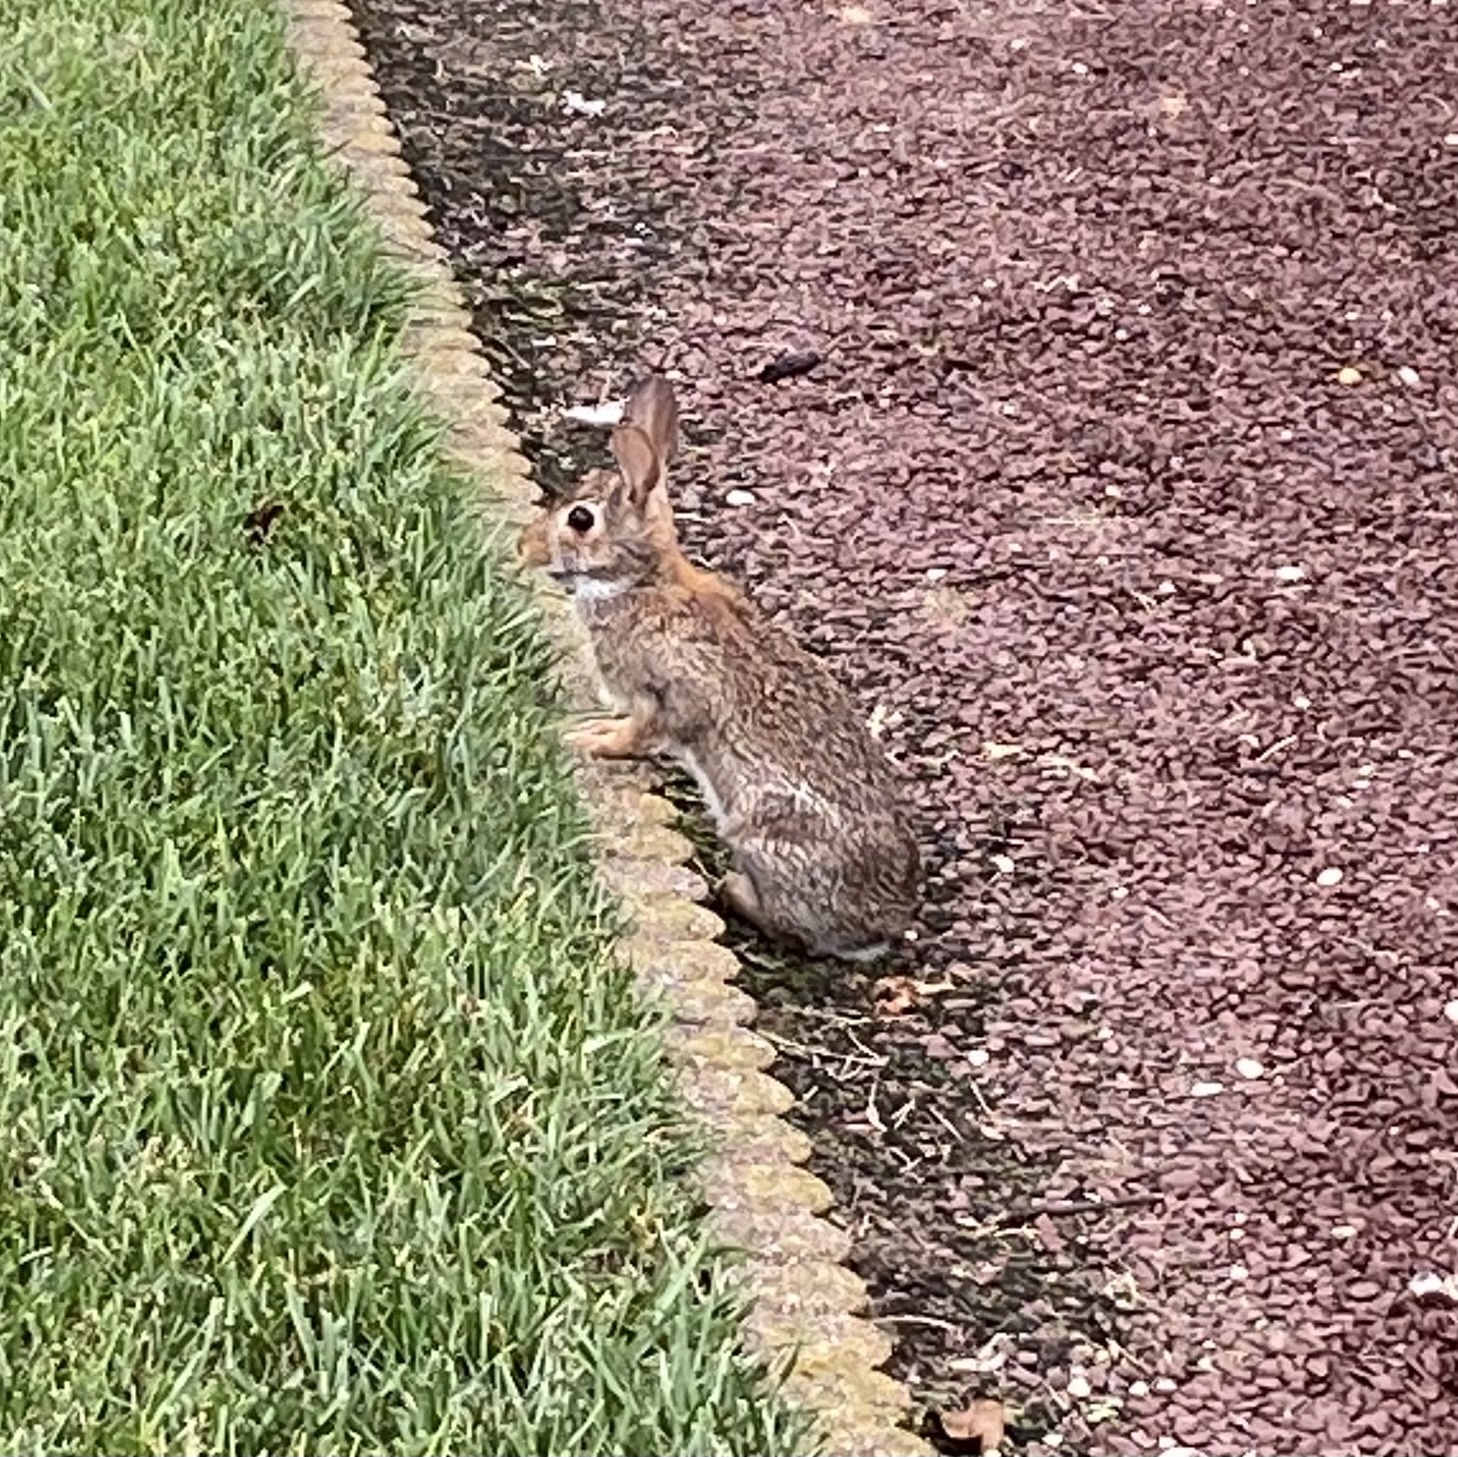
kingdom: Animalia
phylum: Chordata
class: Mammalia
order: Lagomorpha
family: Leporidae
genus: Sylvilagus
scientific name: Sylvilagus floridanus
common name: Eastern cottontail
